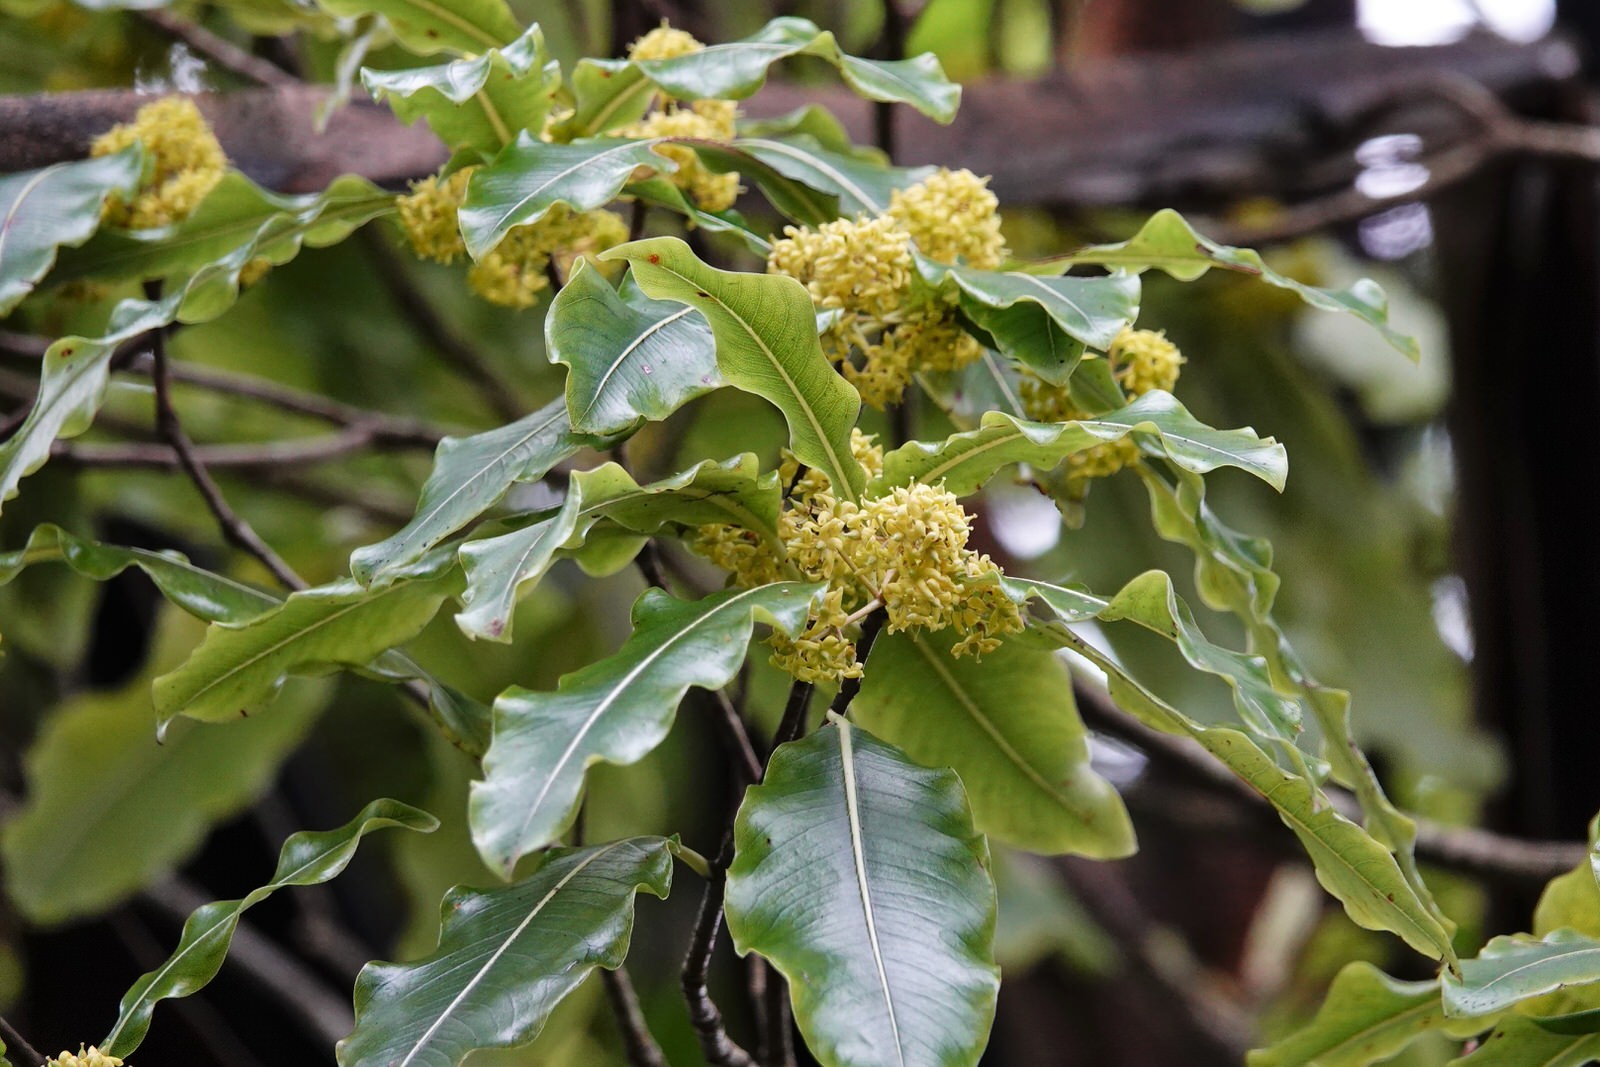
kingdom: Plantae
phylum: Tracheophyta
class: Magnoliopsida
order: Apiales
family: Pittosporaceae
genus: Pittosporum
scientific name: Pittosporum eugenioides
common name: Lemonwood
